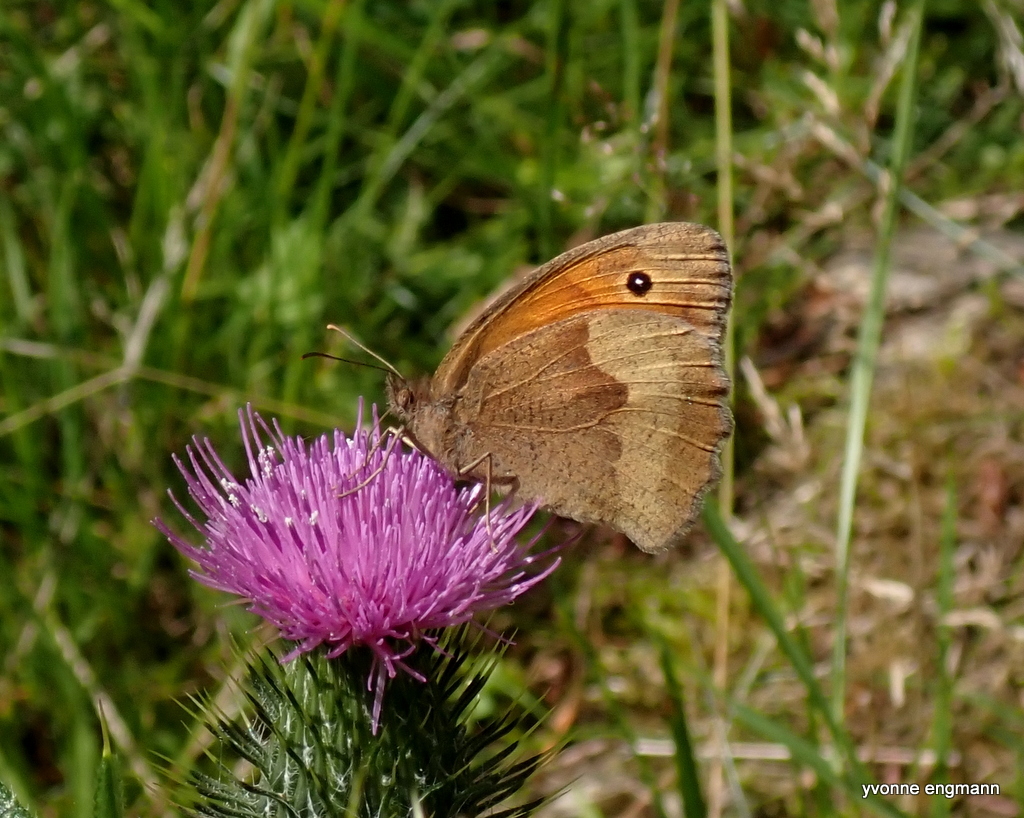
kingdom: Animalia
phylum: Arthropoda
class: Insecta
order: Lepidoptera
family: Nymphalidae
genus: Maniola
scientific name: Maniola jurtina
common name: Meadow brown
